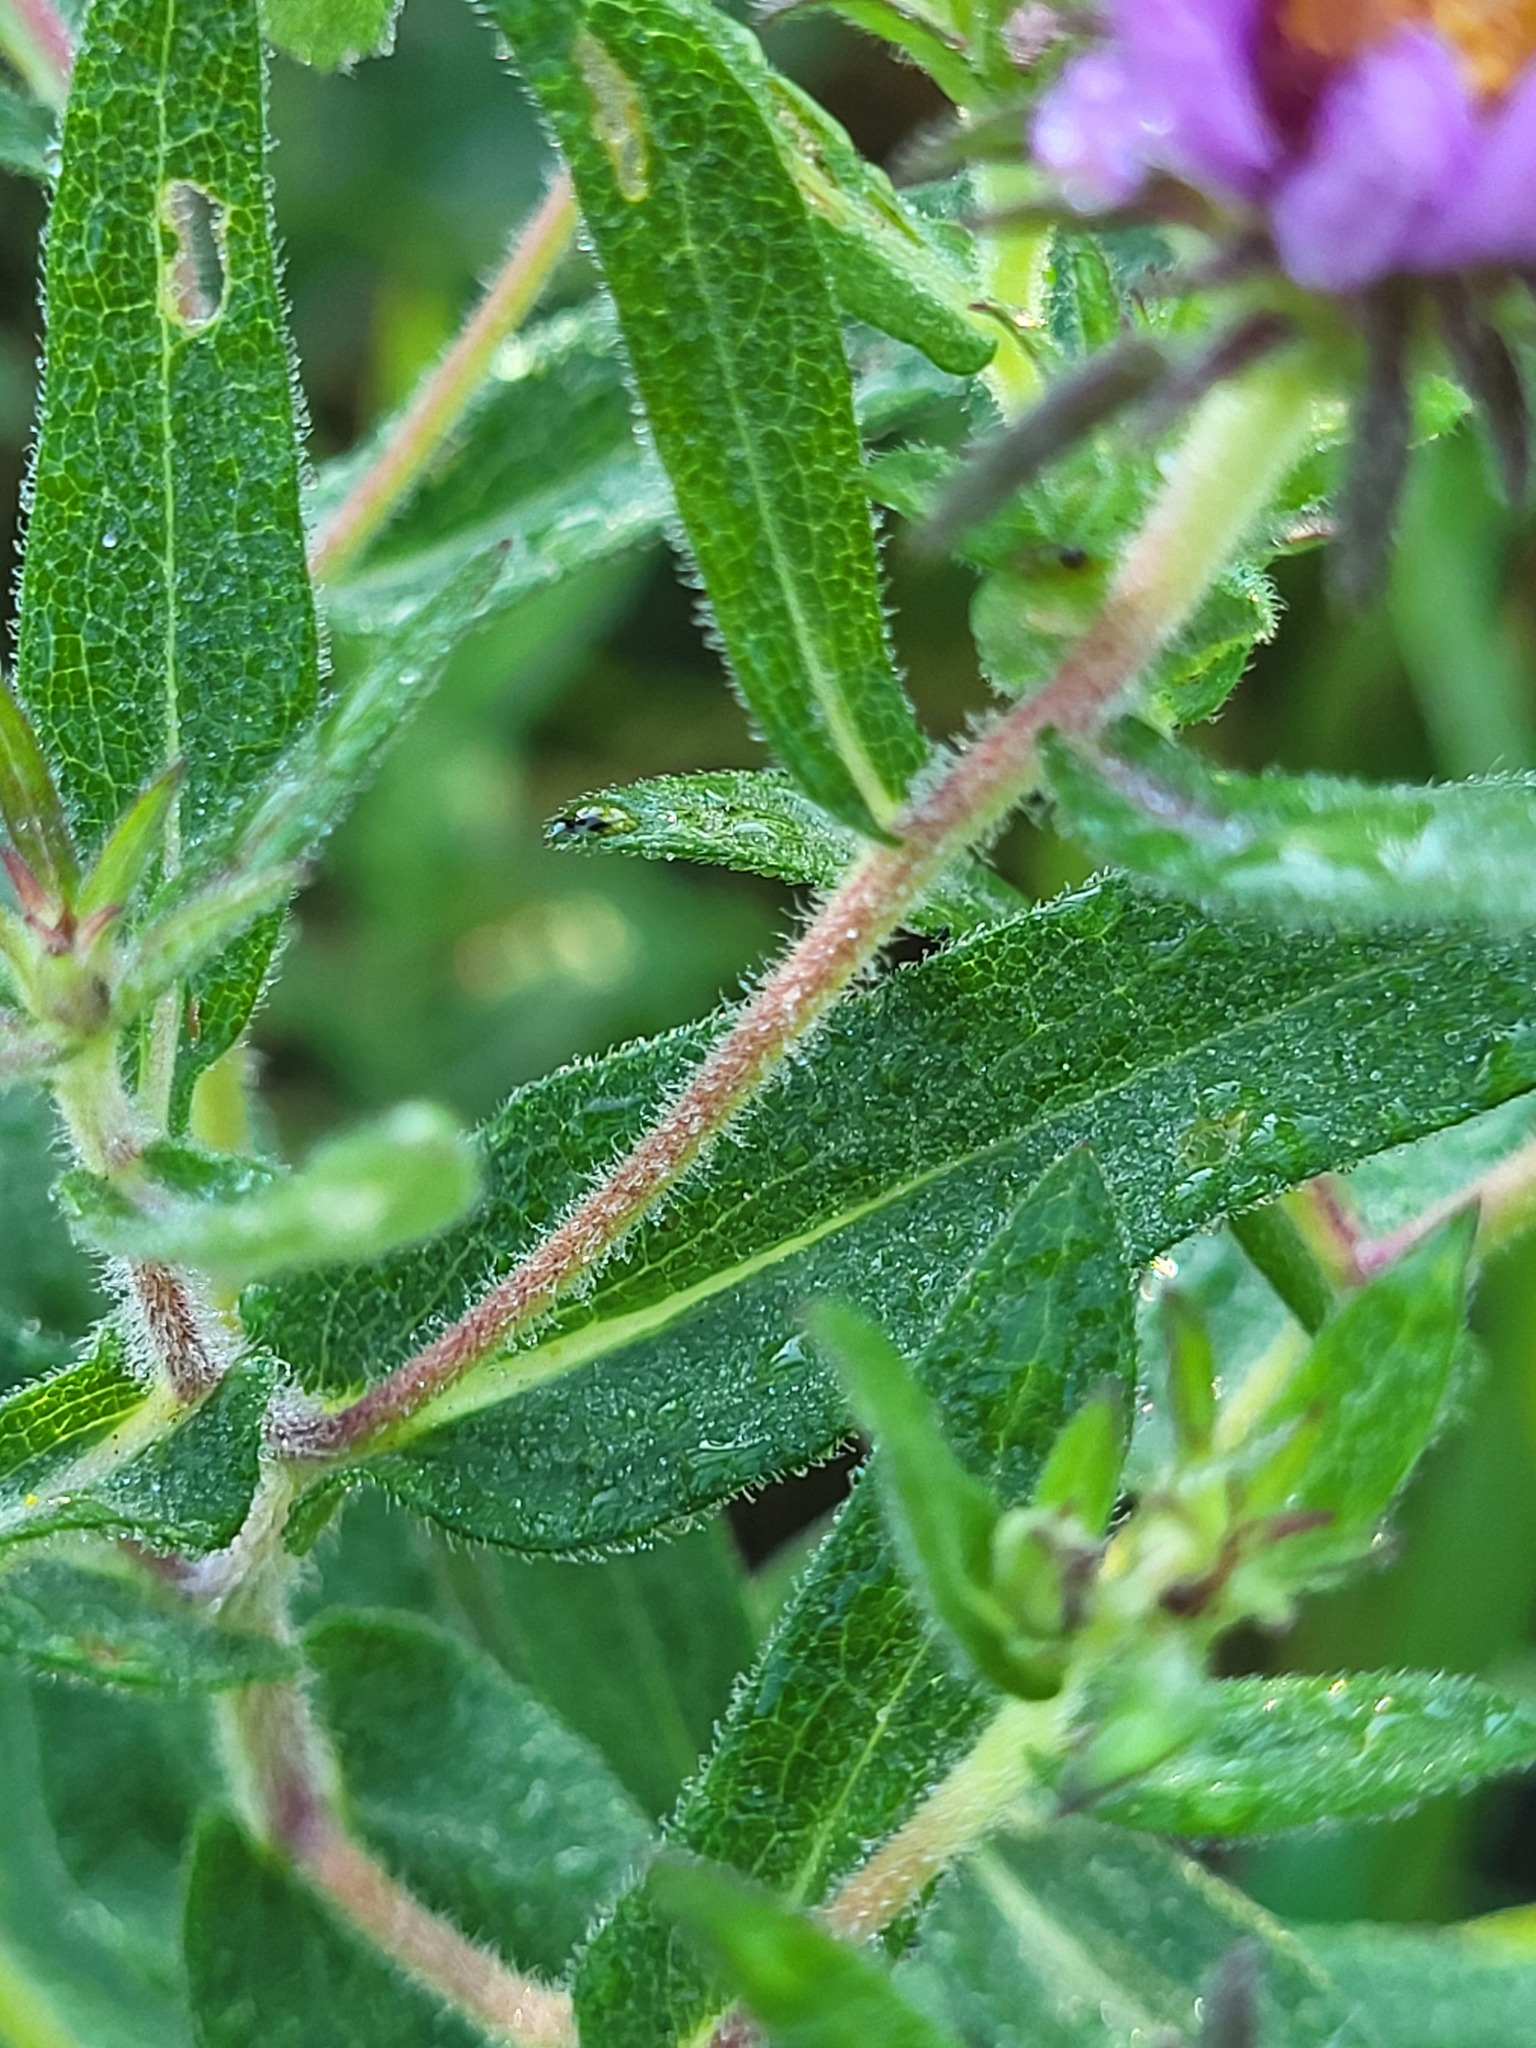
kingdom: Plantae
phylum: Tracheophyta
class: Magnoliopsida
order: Asterales
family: Asteraceae
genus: Symphyotrichum
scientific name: Symphyotrichum novae-angliae
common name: Michaelmas daisy
